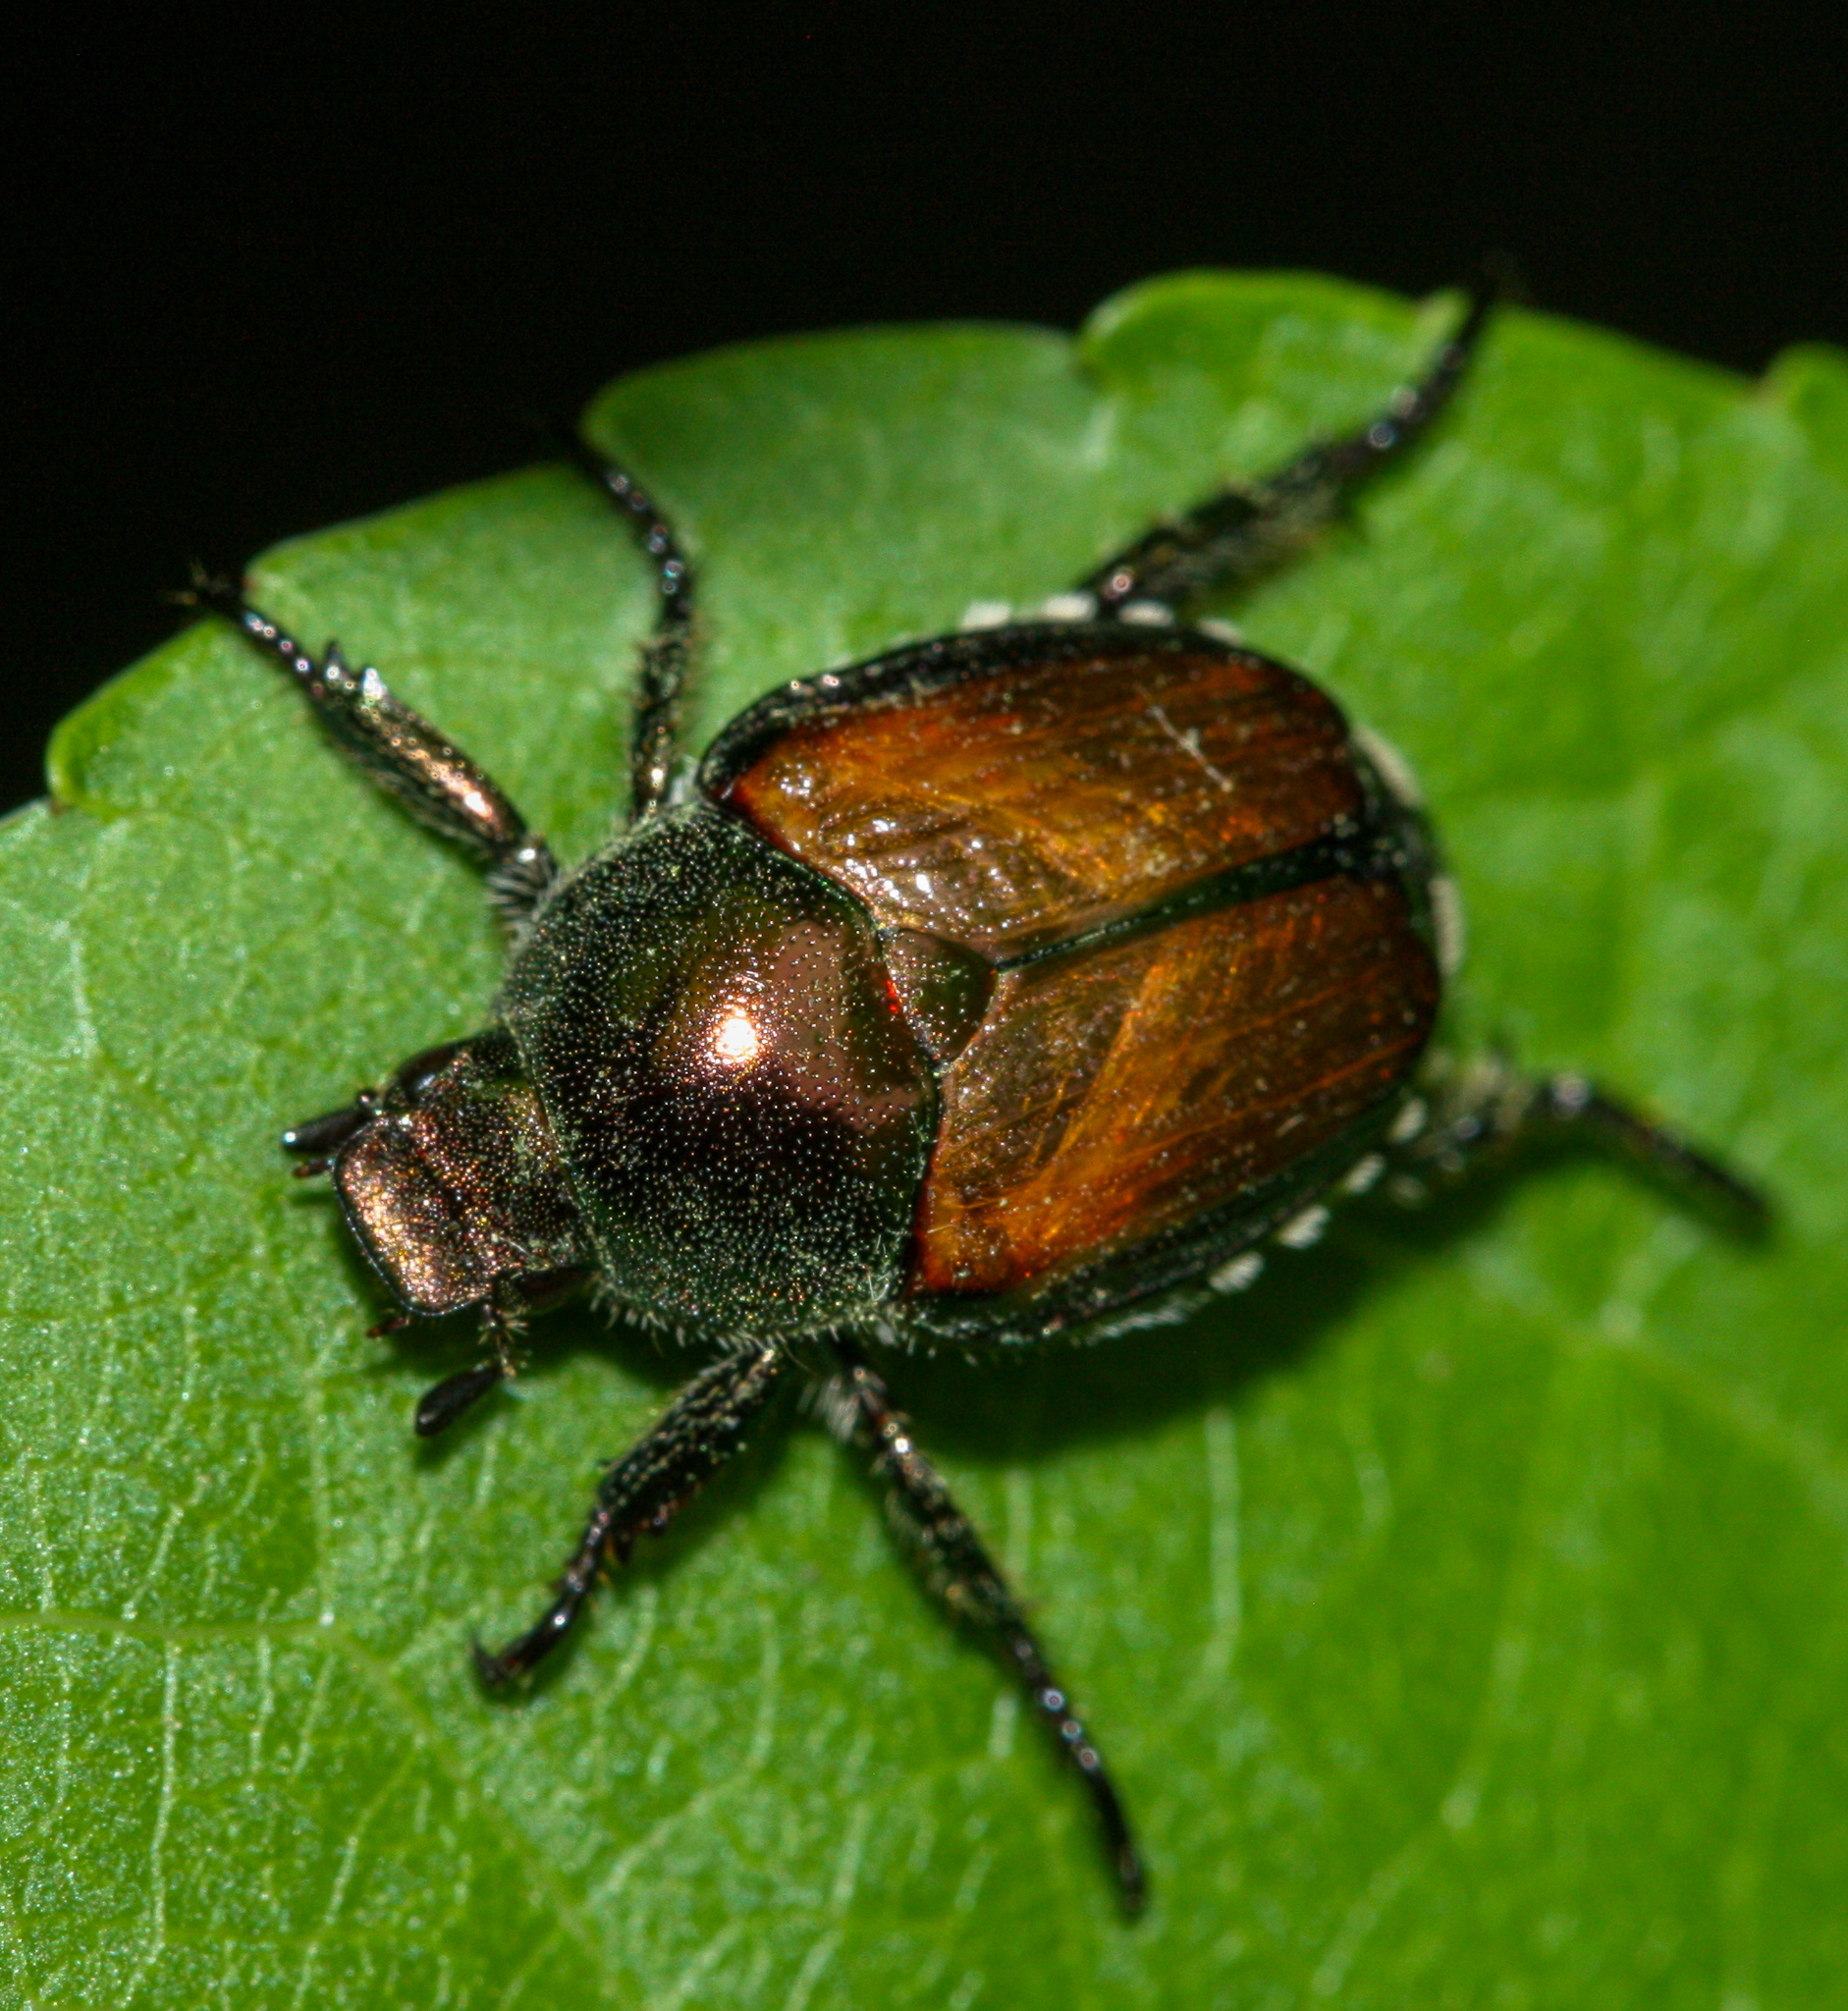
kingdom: Animalia
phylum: Arthropoda
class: Insecta
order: Coleoptera
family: Scarabaeidae
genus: Popillia
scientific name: Popillia japonica
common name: Japanese beetle
